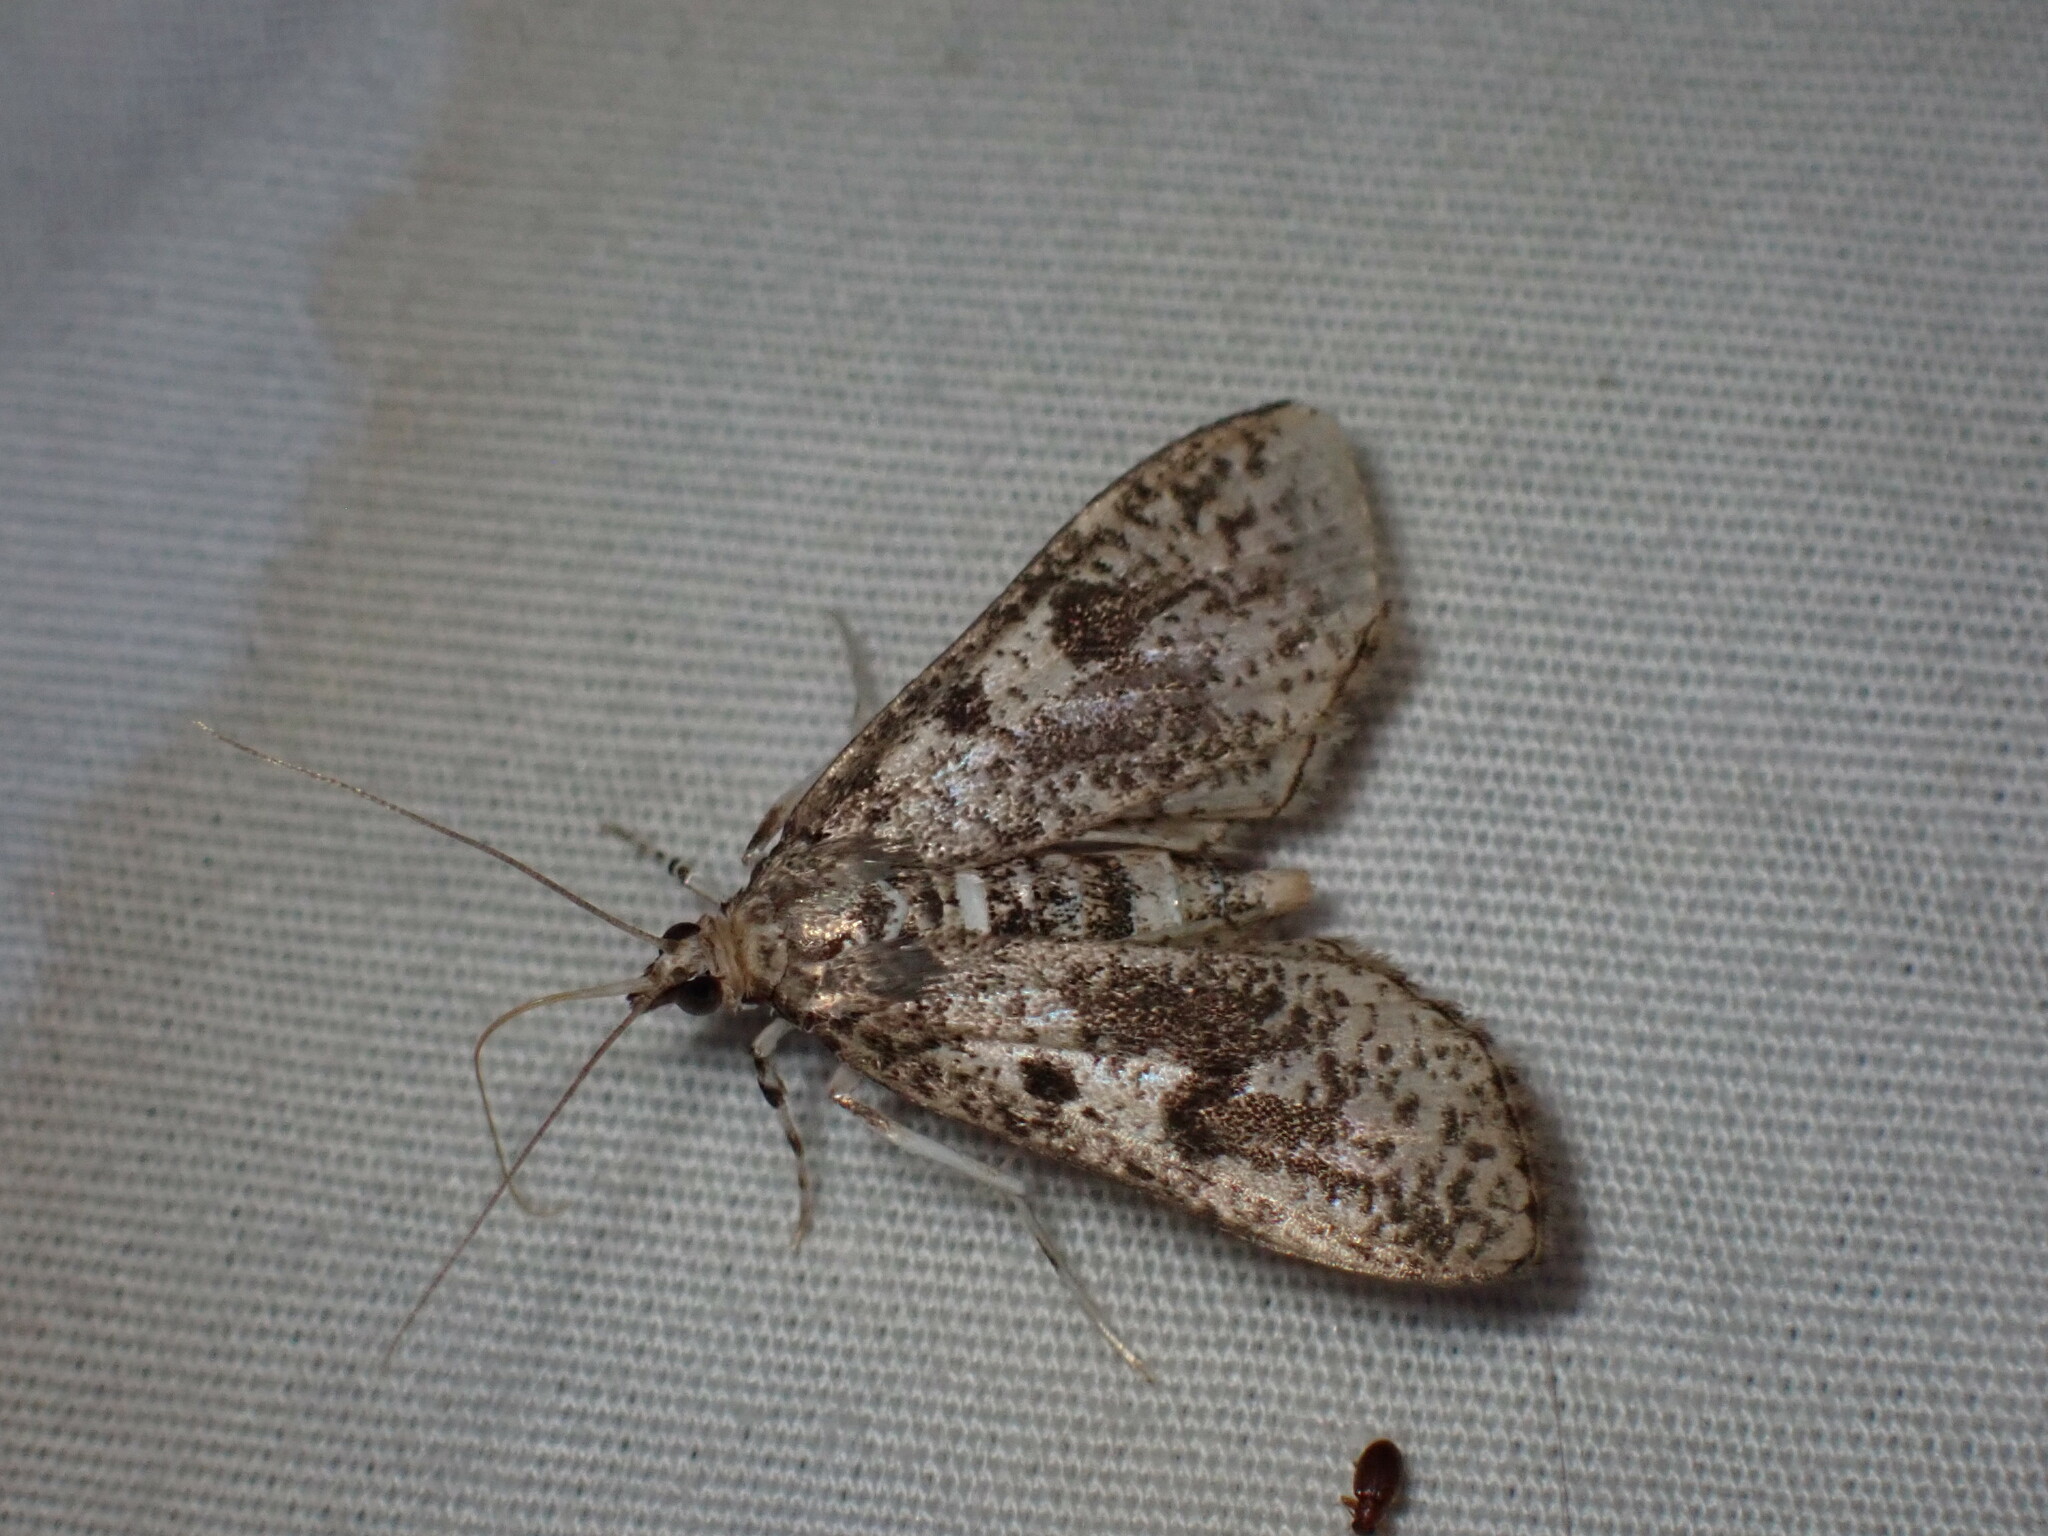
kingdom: Animalia
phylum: Arthropoda
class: Insecta
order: Lepidoptera
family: Crambidae
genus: Palpita
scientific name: Palpita magniferalis
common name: Splendid palpita moth
